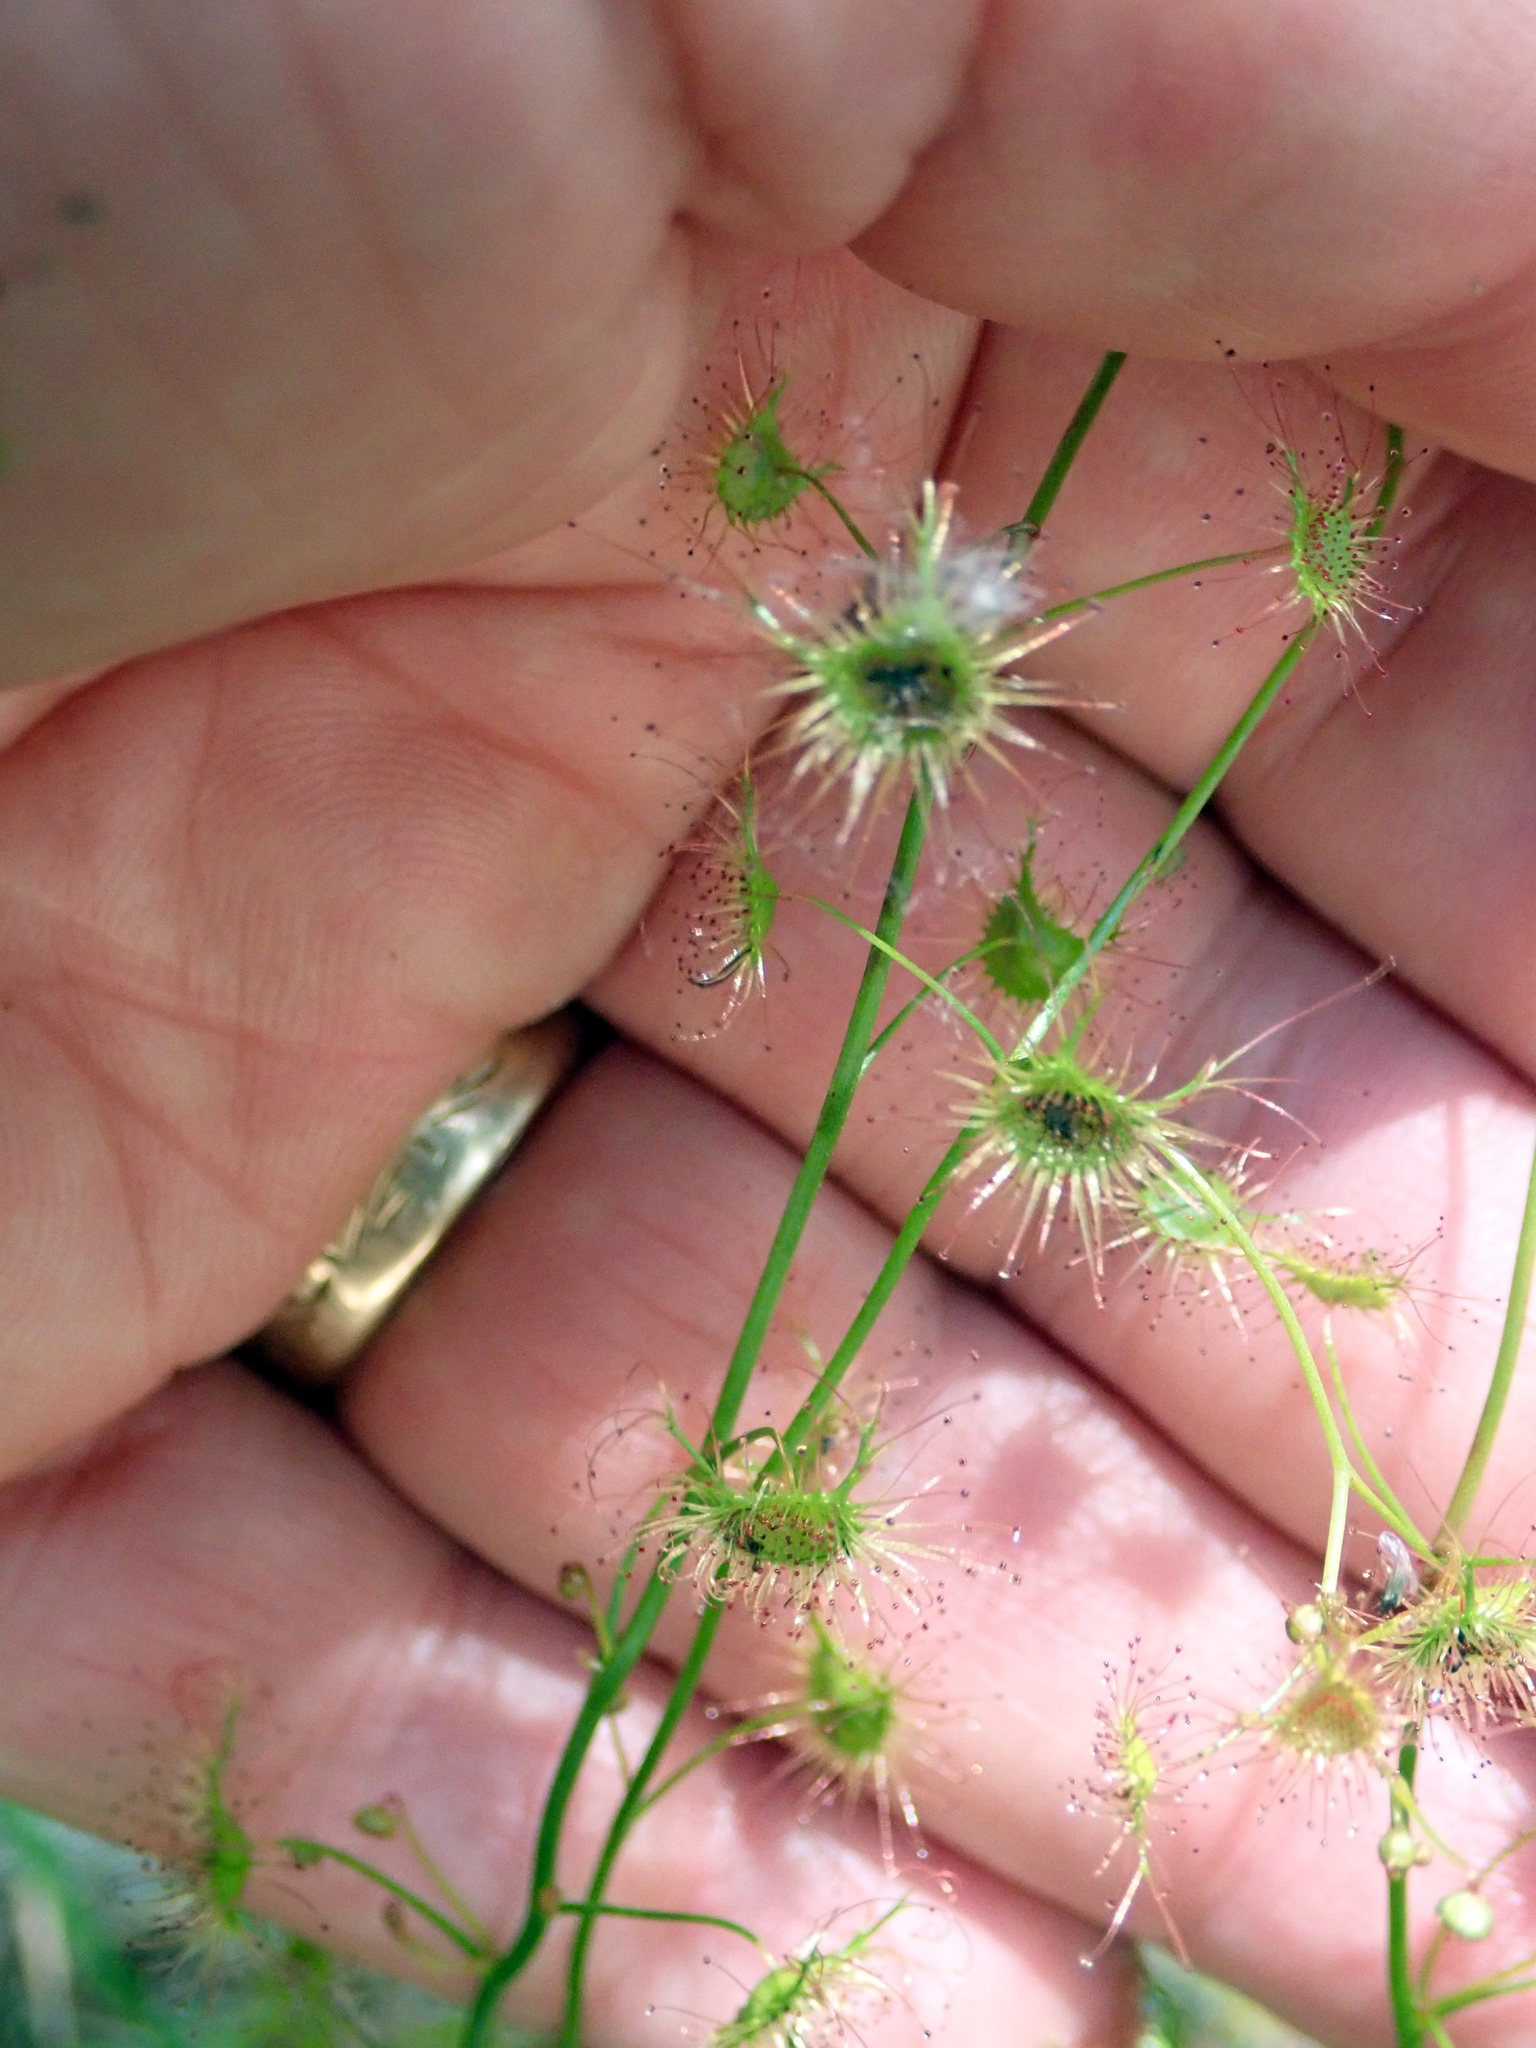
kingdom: Plantae
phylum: Tracheophyta
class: Magnoliopsida
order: Caryophyllales
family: Droseraceae
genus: Drosera
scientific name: Drosera peltata
